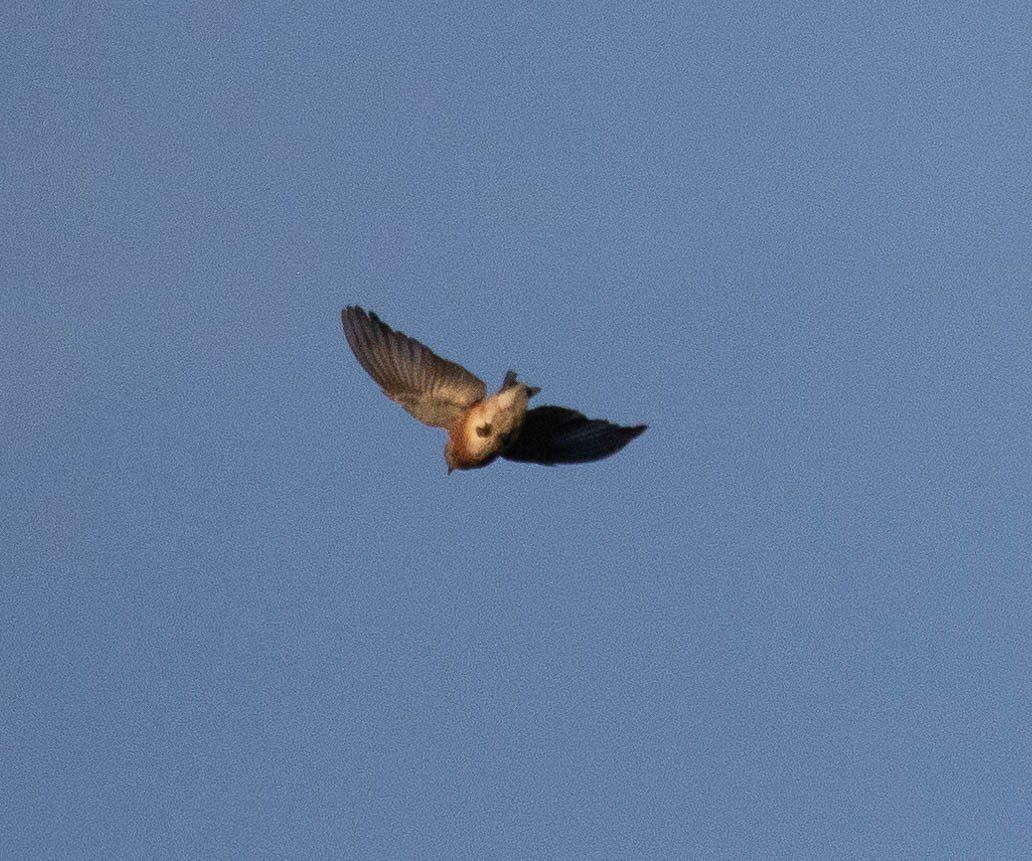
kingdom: Animalia
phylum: Chordata
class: Aves
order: Passeriformes
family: Turdidae
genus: Sialia
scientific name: Sialia sialis
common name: Eastern bluebird
